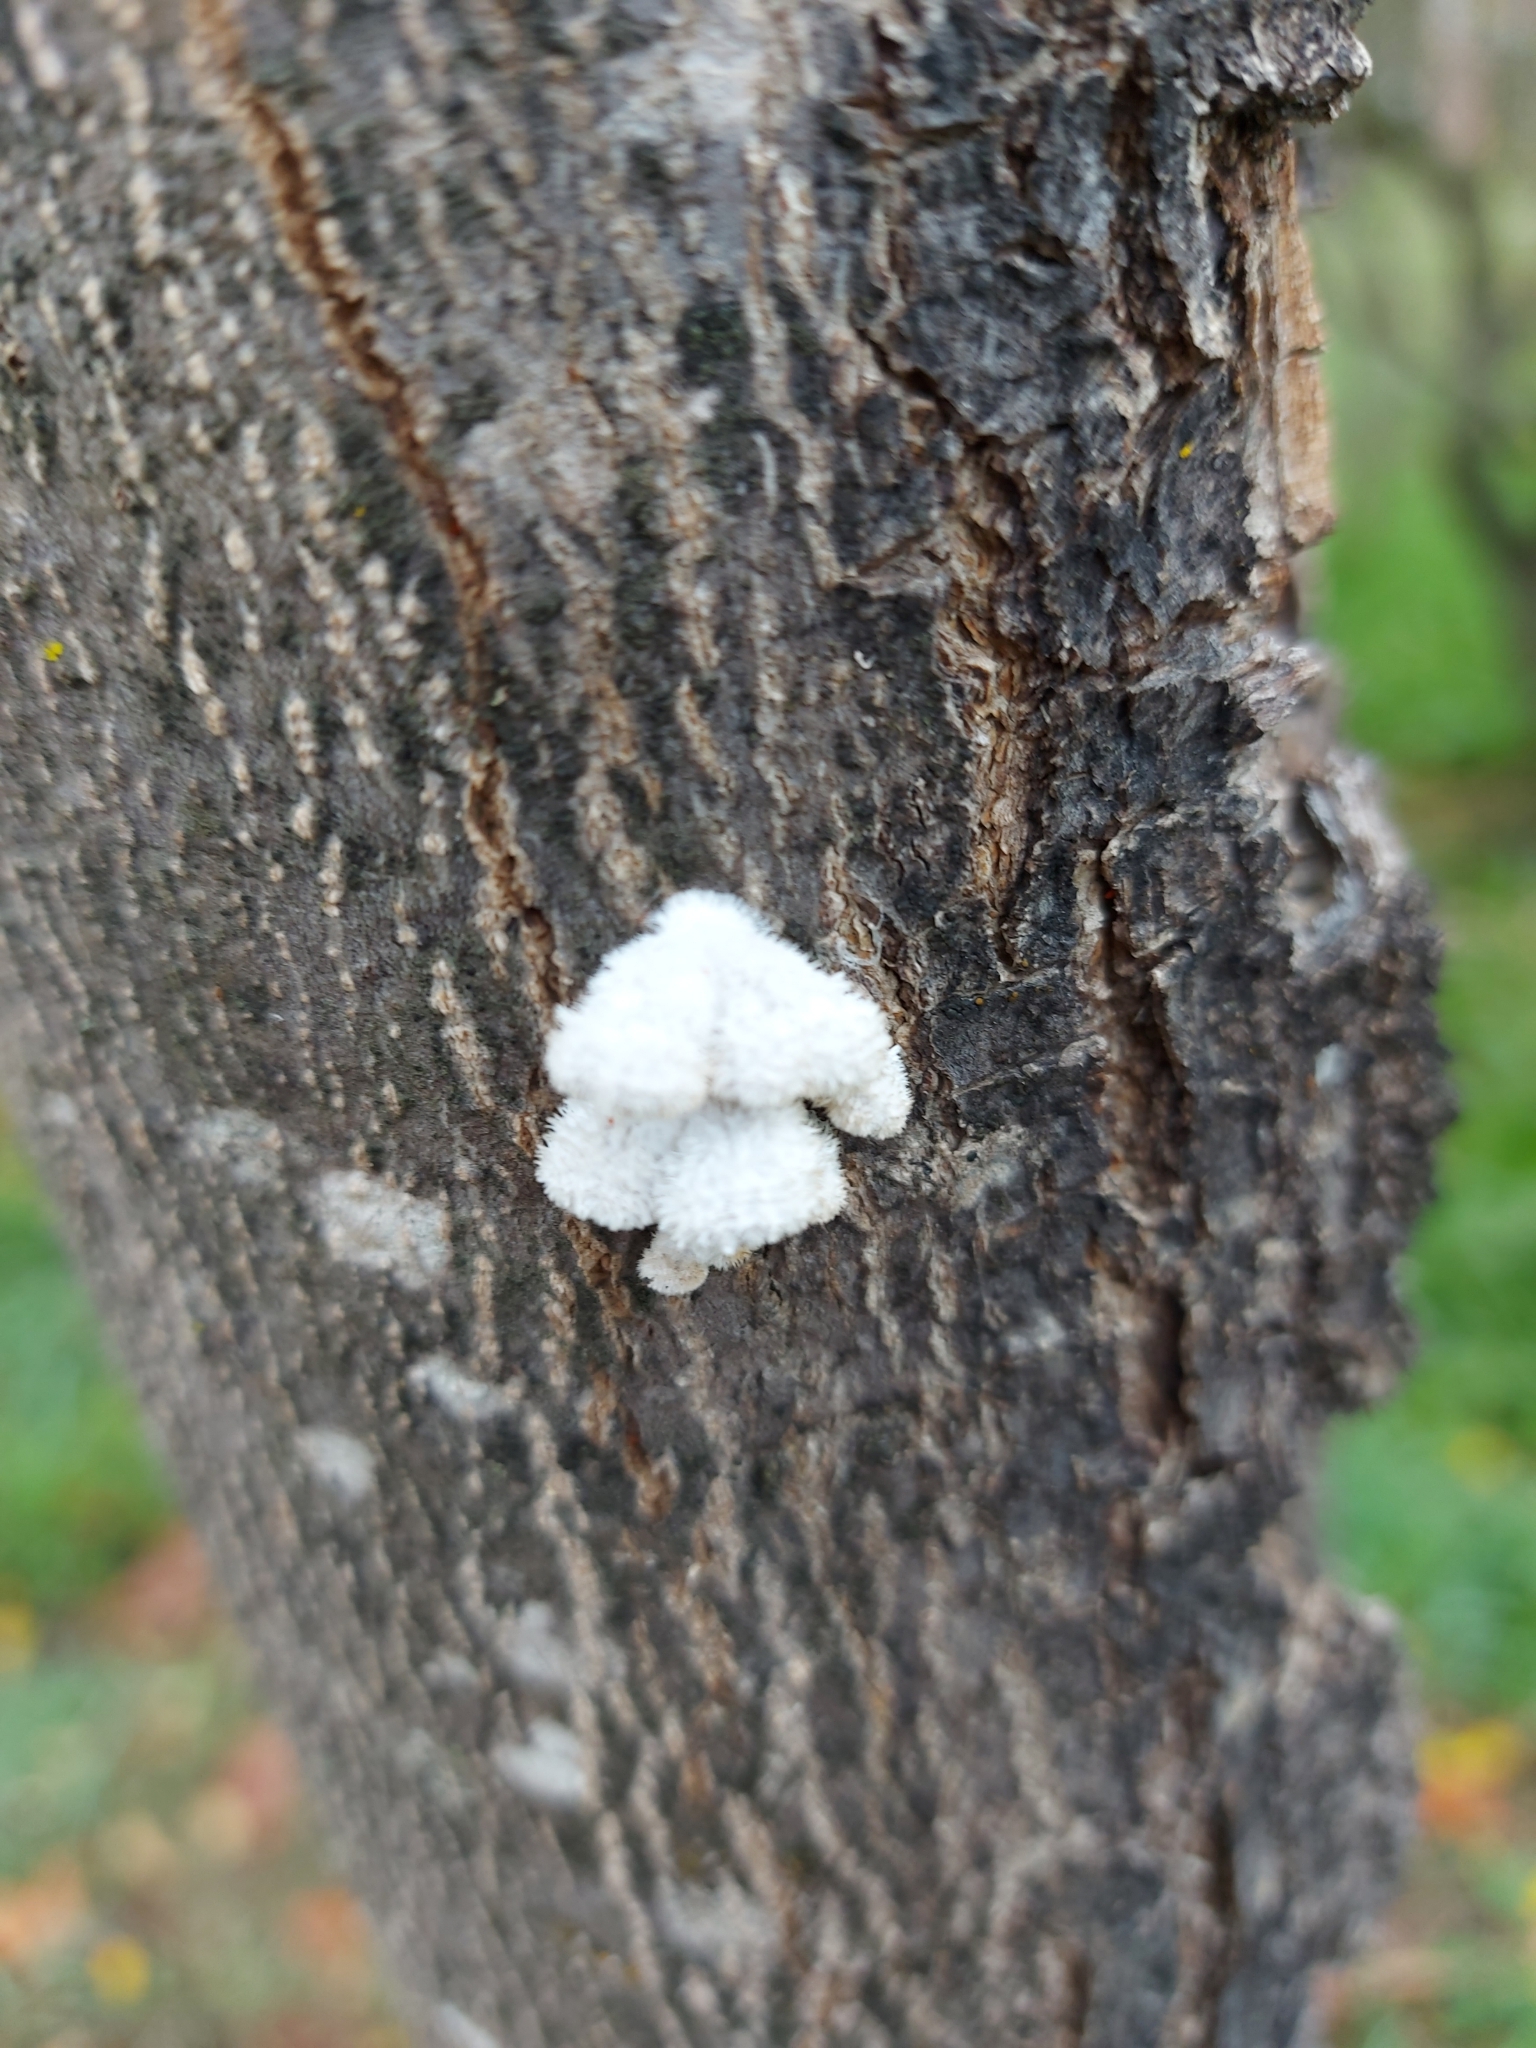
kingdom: Fungi
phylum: Basidiomycota
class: Agaricomycetes
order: Agaricales
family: Schizophyllaceae
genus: Schizophyllum
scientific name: Schizophyllum commune
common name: Common porecrust
